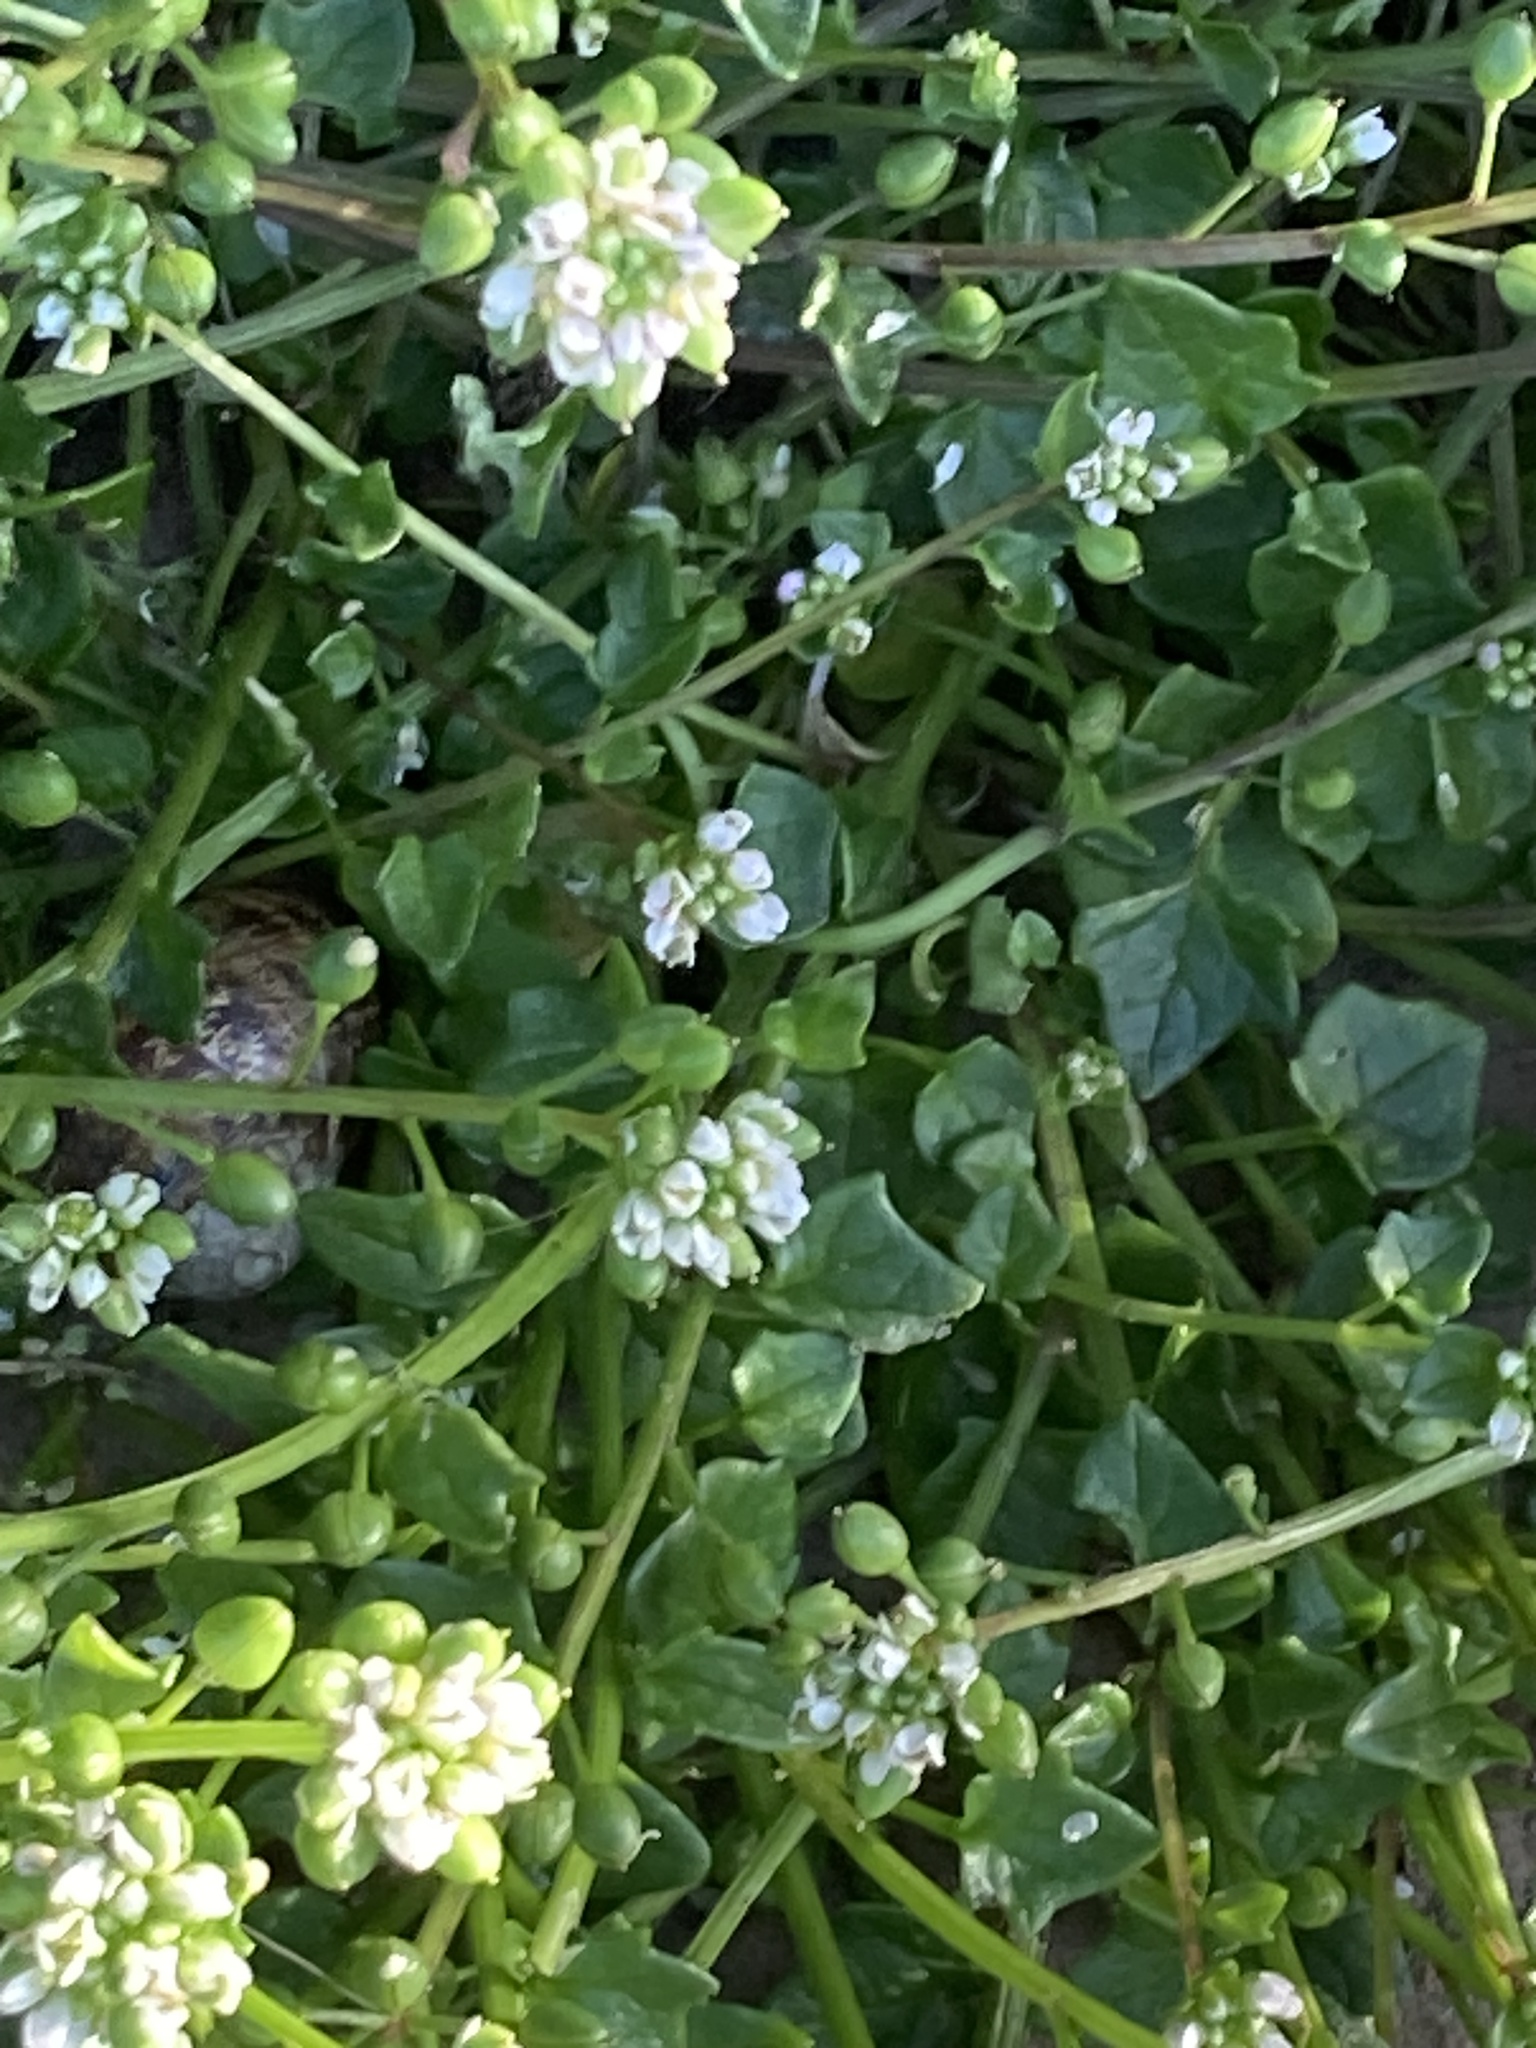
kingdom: Plantae
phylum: Tracheophyta
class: Magnoliopsida
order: Brassicales
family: Brassicaceae
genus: Cochlearia
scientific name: Cochlearia danica
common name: Early scurvygrass
